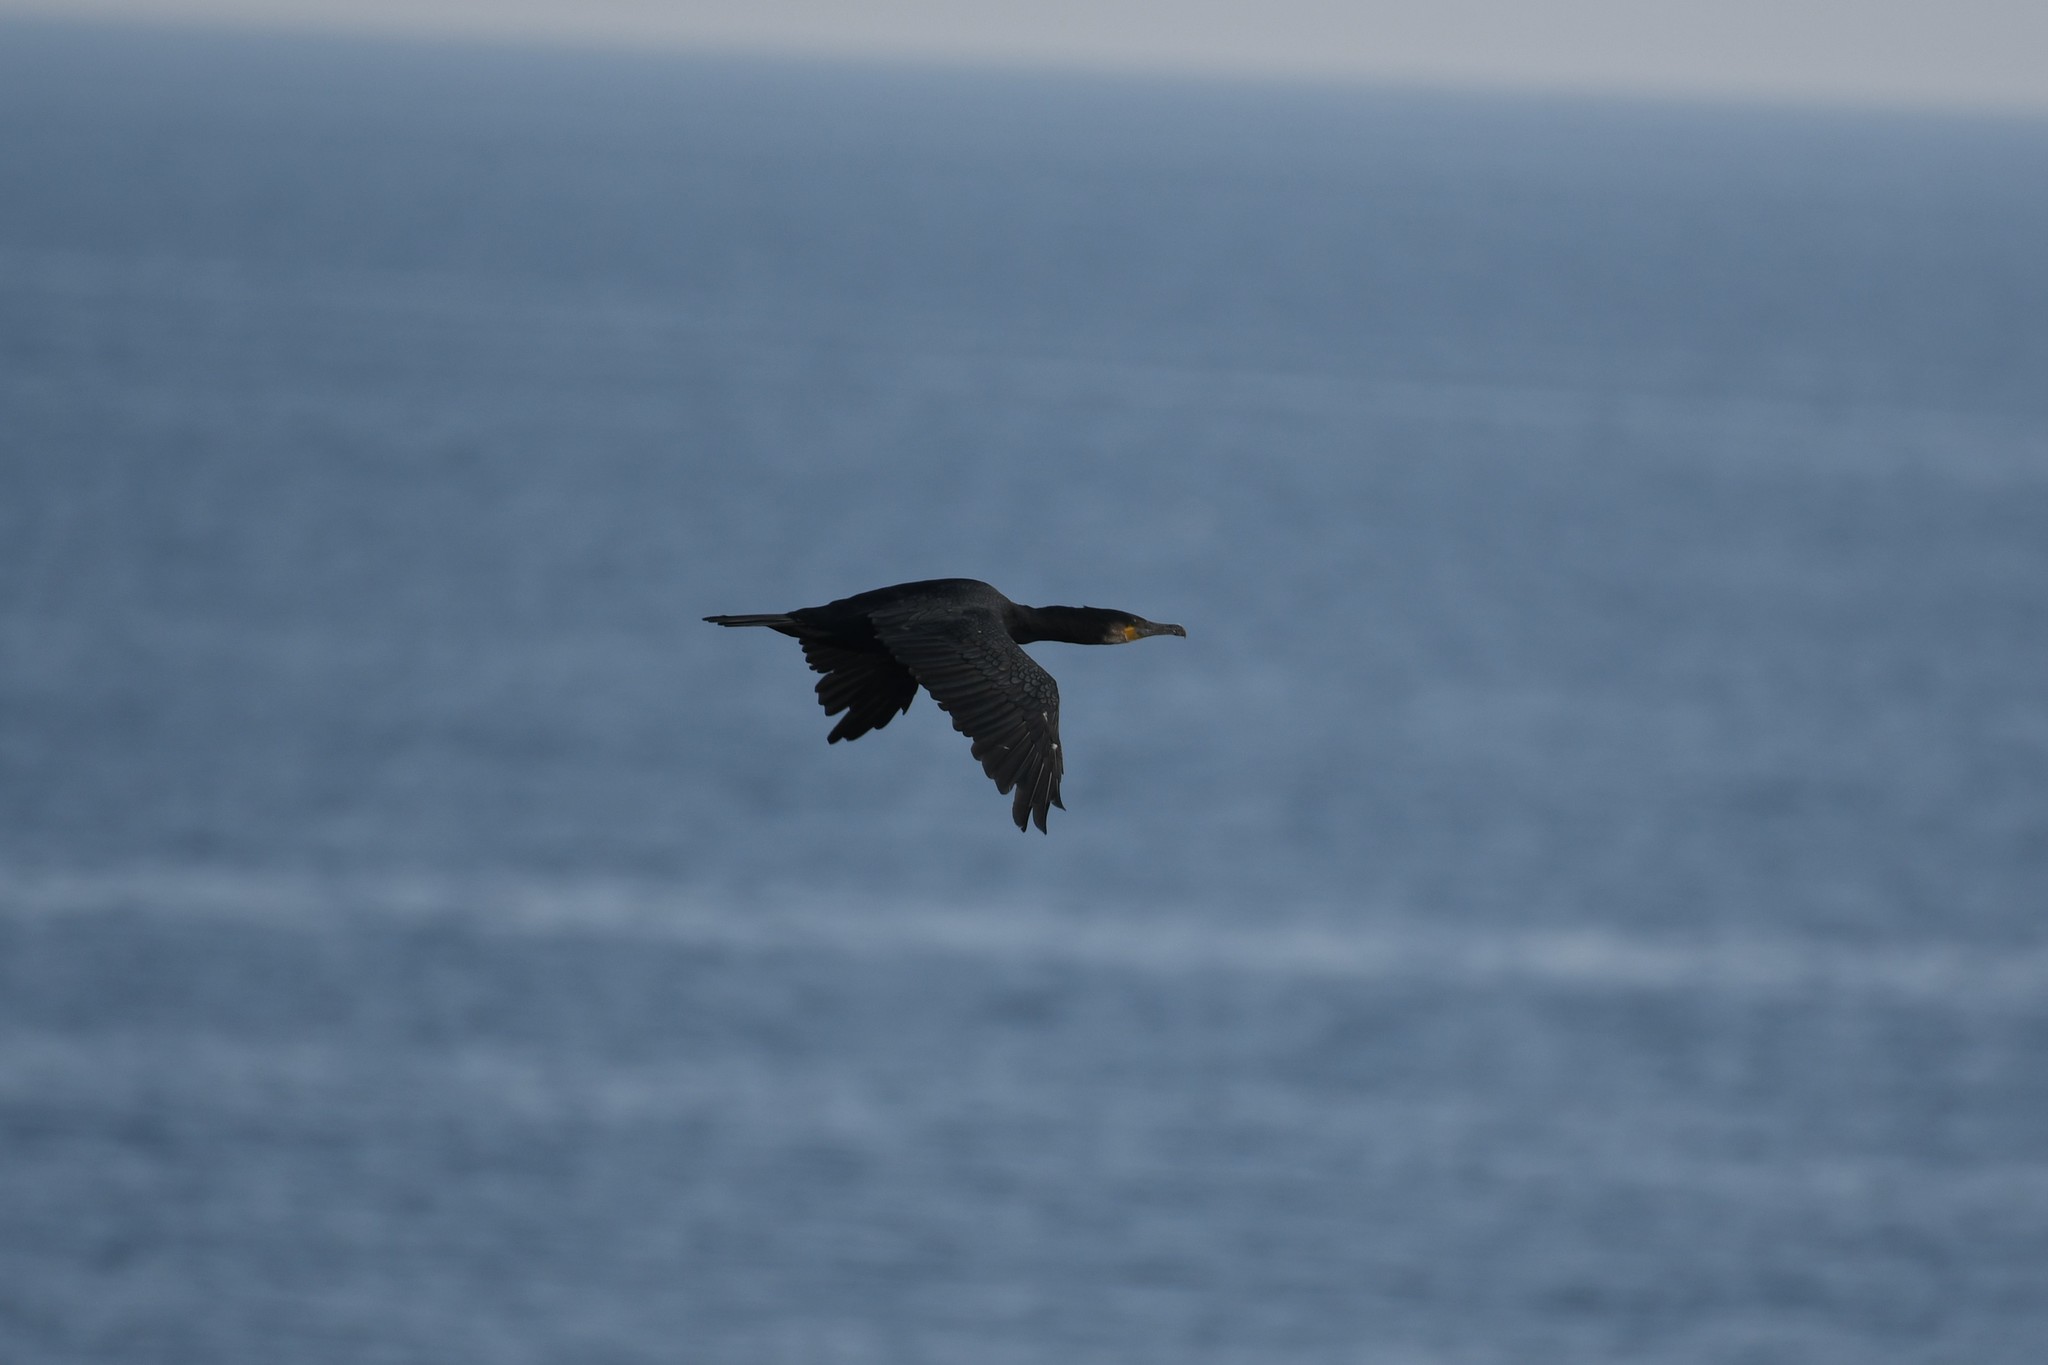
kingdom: Animalia
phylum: Chordata
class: Aves
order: Suliformes
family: Phalacrocoracidae
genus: Phalacrocorax
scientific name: Phalacrocorax carbo
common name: Great cormorant
